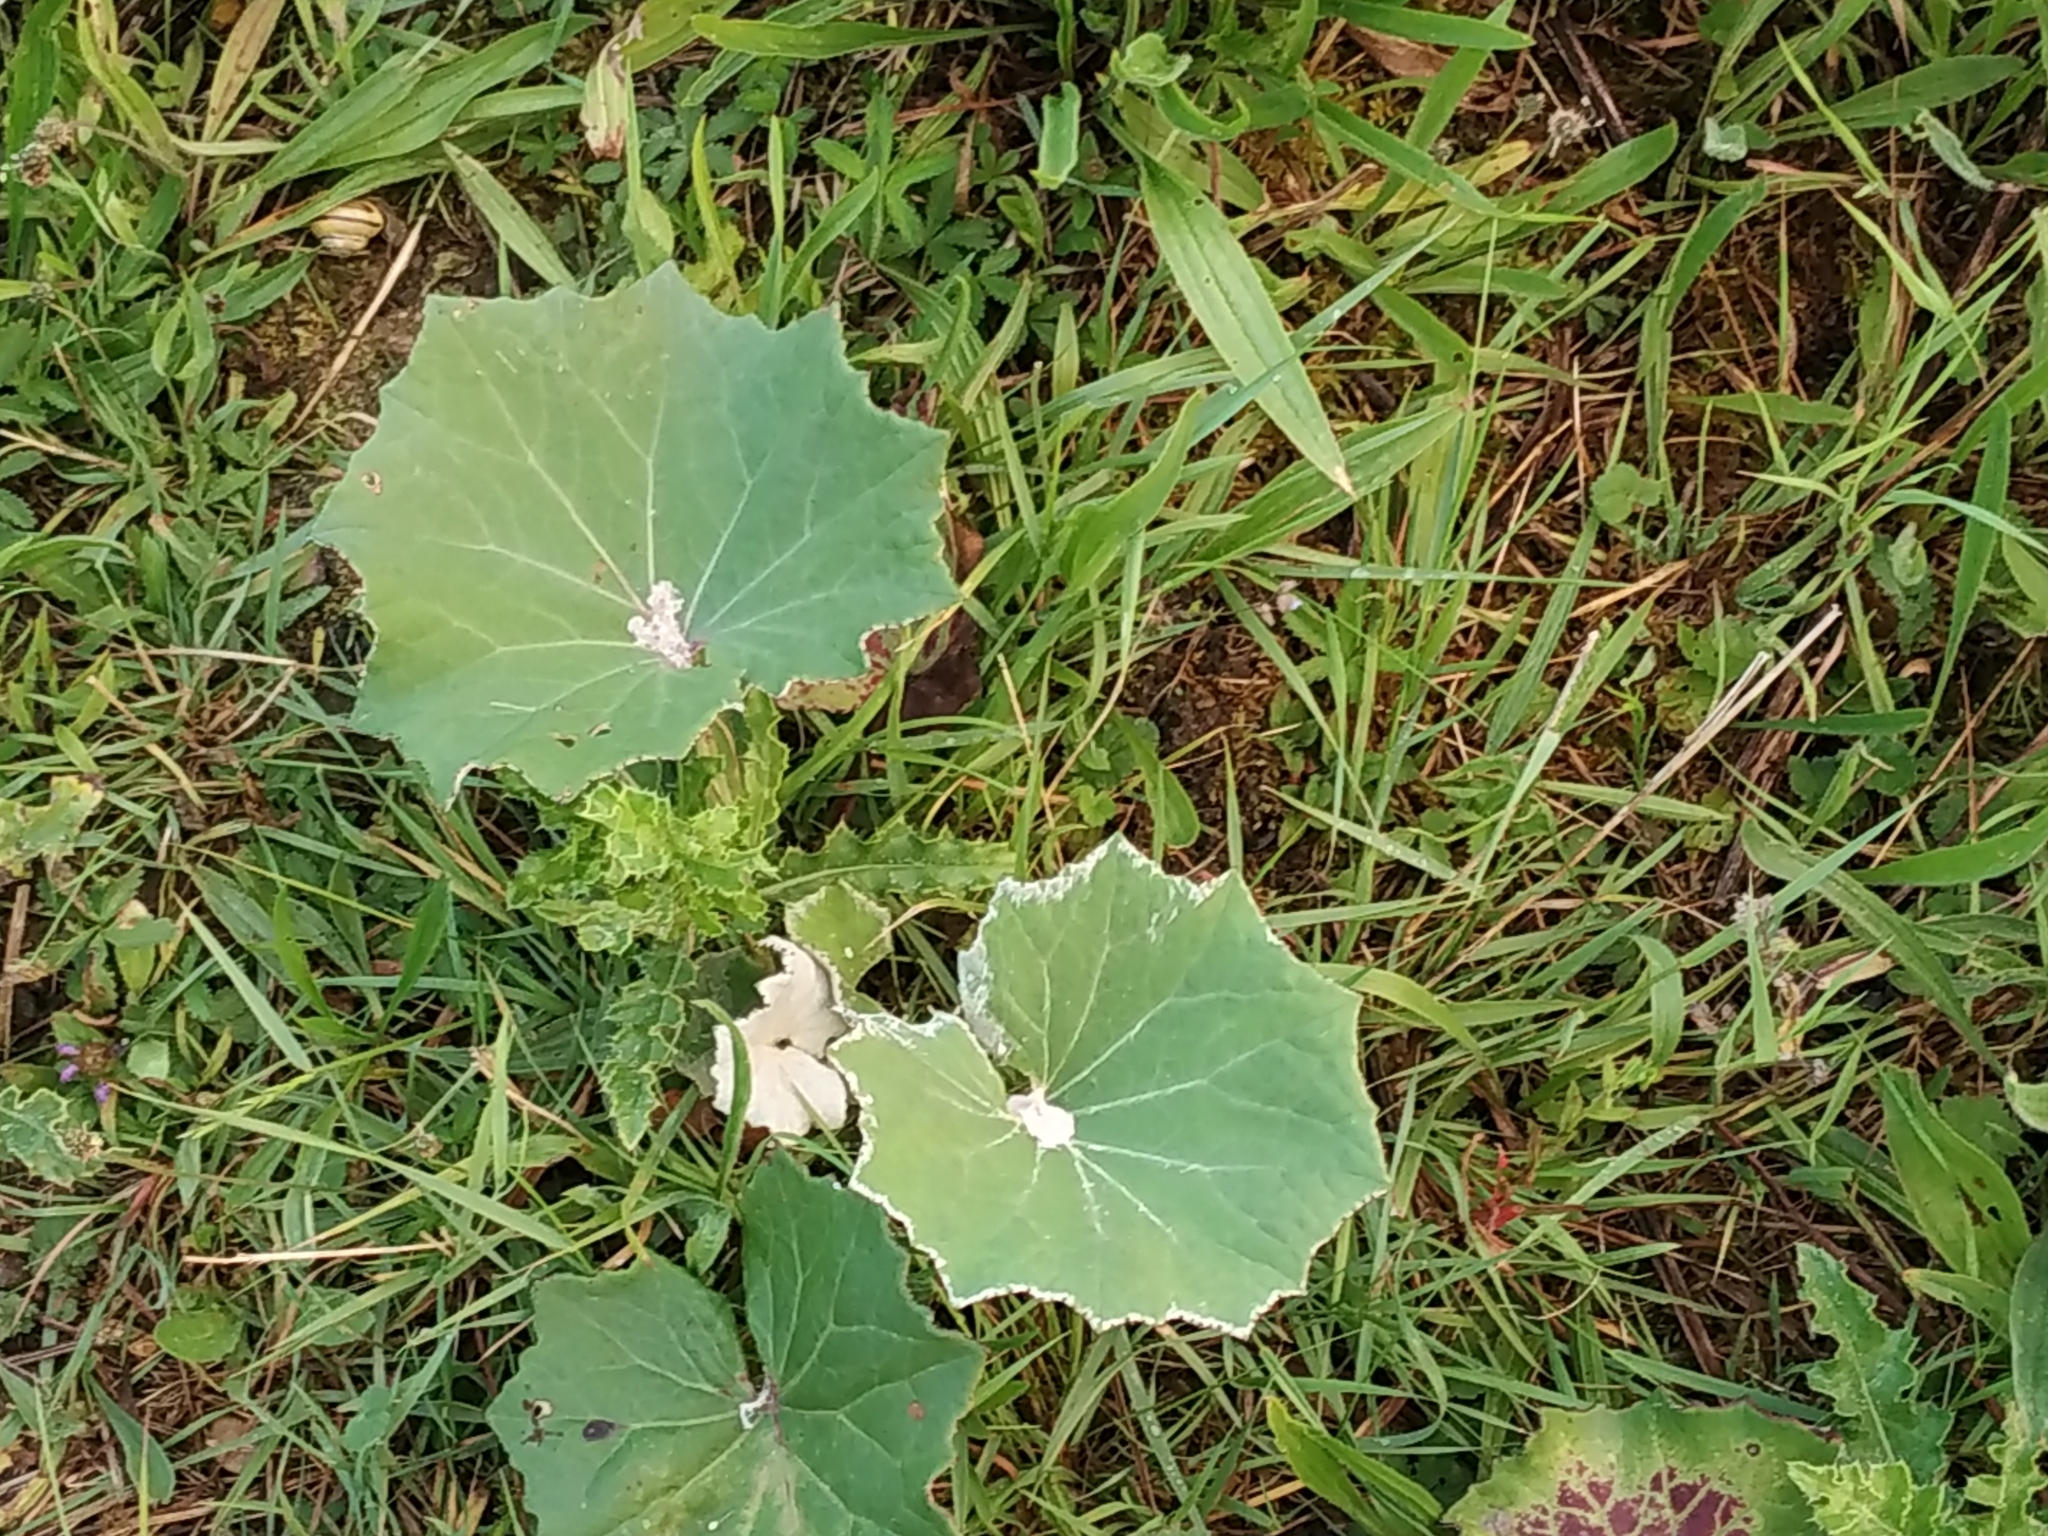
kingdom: Plantae
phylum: Tracheophyta
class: Magnoliopsida
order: Asterales
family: Asteraceae
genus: Tussilago
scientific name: Tussilago farfara
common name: Coltsfoot
